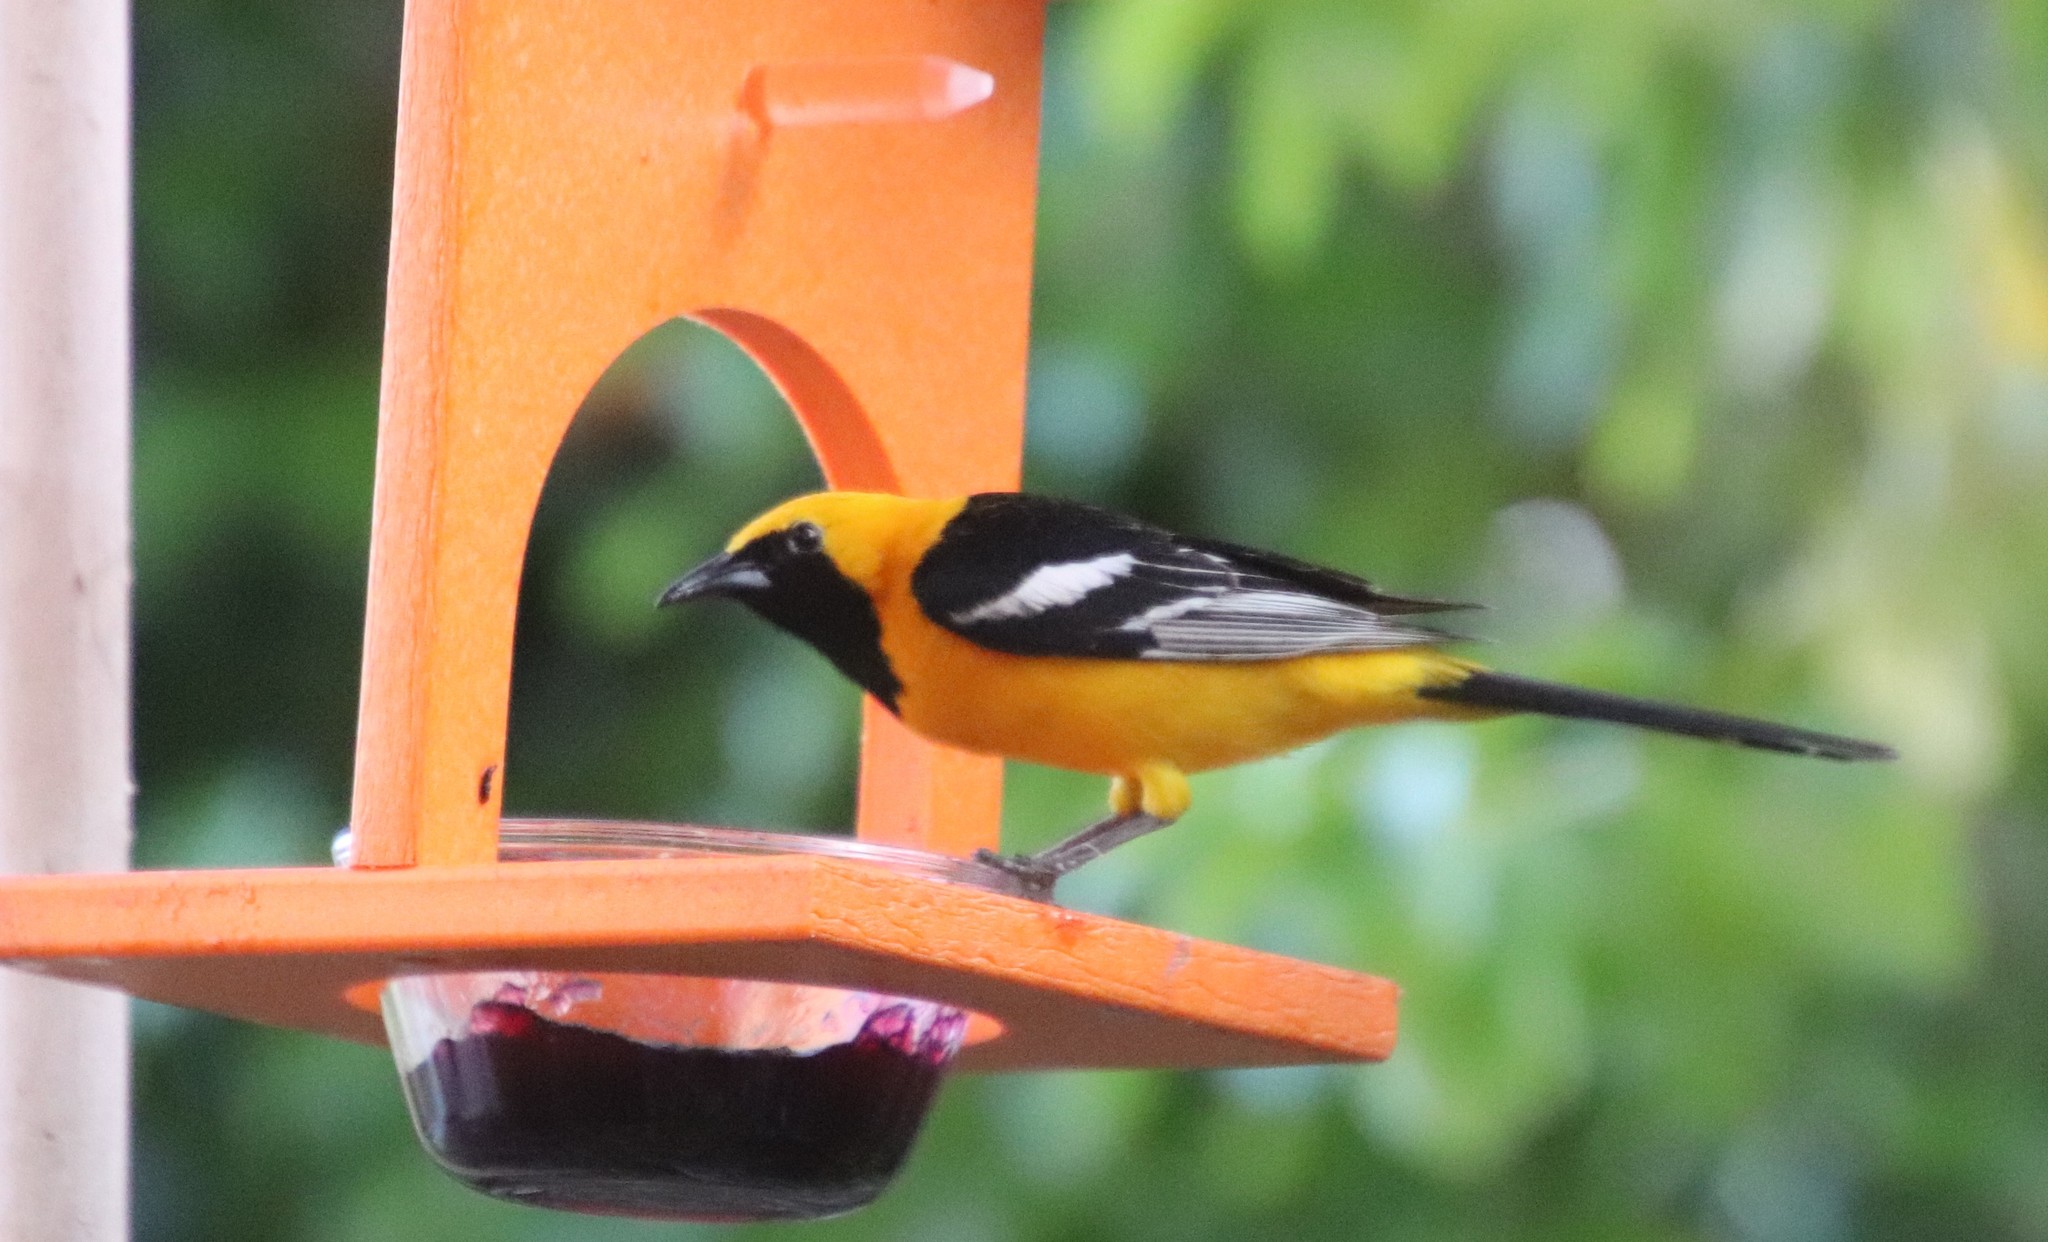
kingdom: Animalia
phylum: Chordata
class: Aves
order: Passeriformes
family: Icteridae
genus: Icterus
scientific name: Icterus cucullatus
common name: Hooded oriole
